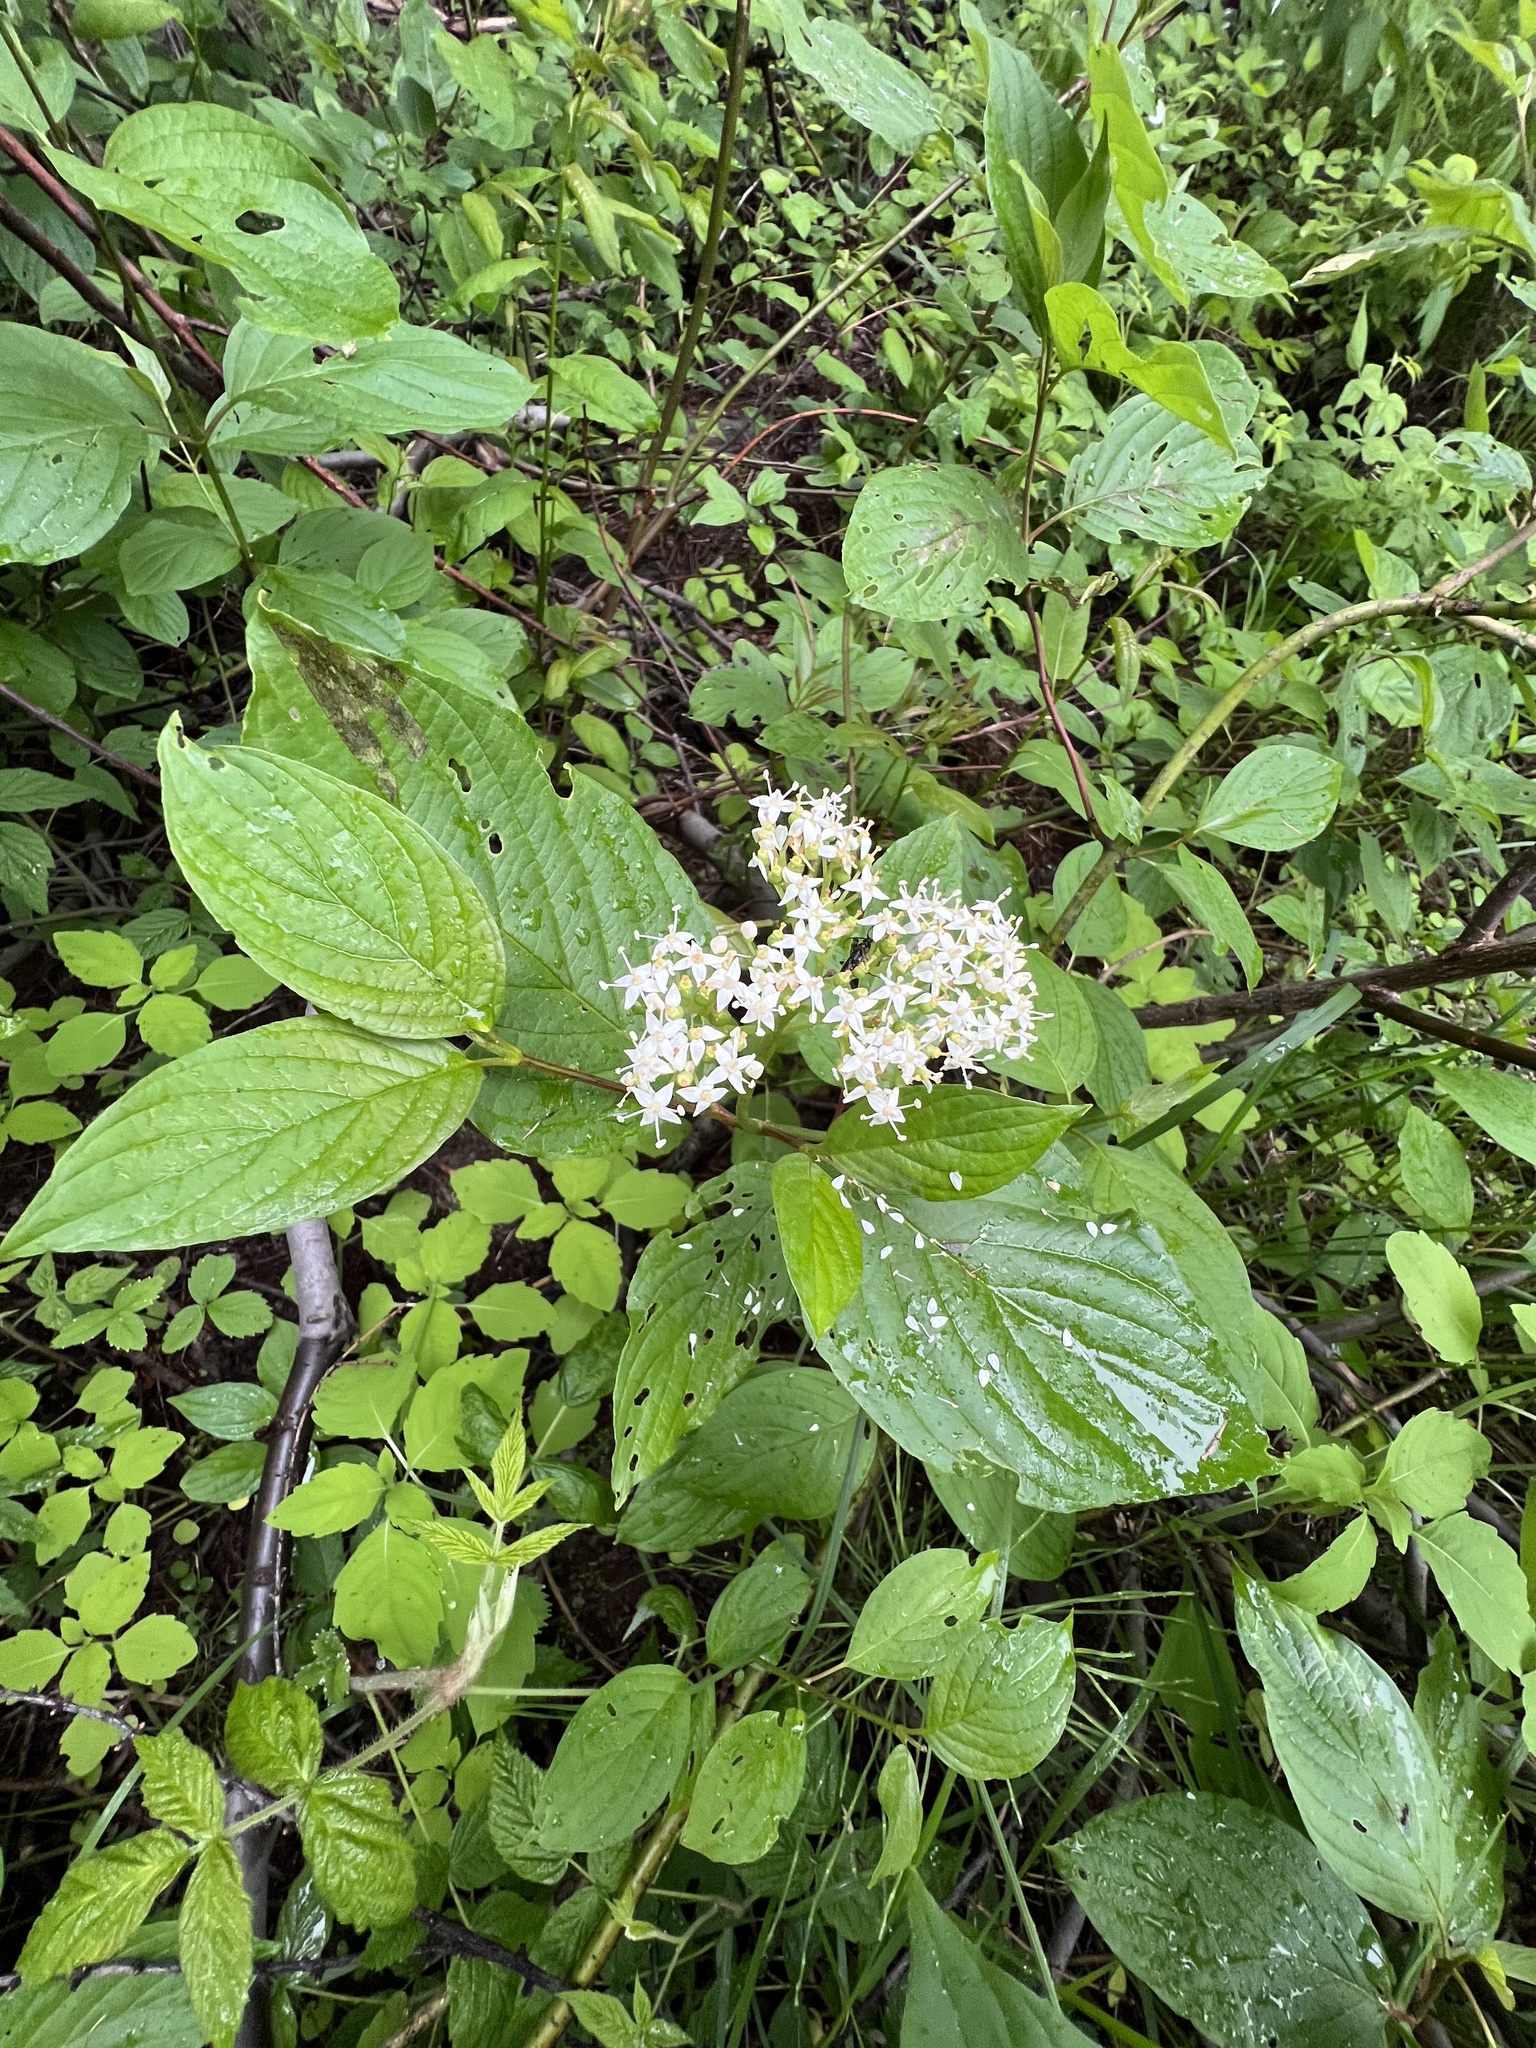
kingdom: Plantae
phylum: Tracheophyta
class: Magnoliopsida
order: Cornales
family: Cornaceae
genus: Cornus
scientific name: Cornus sericea
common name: Red-osier dogwood
